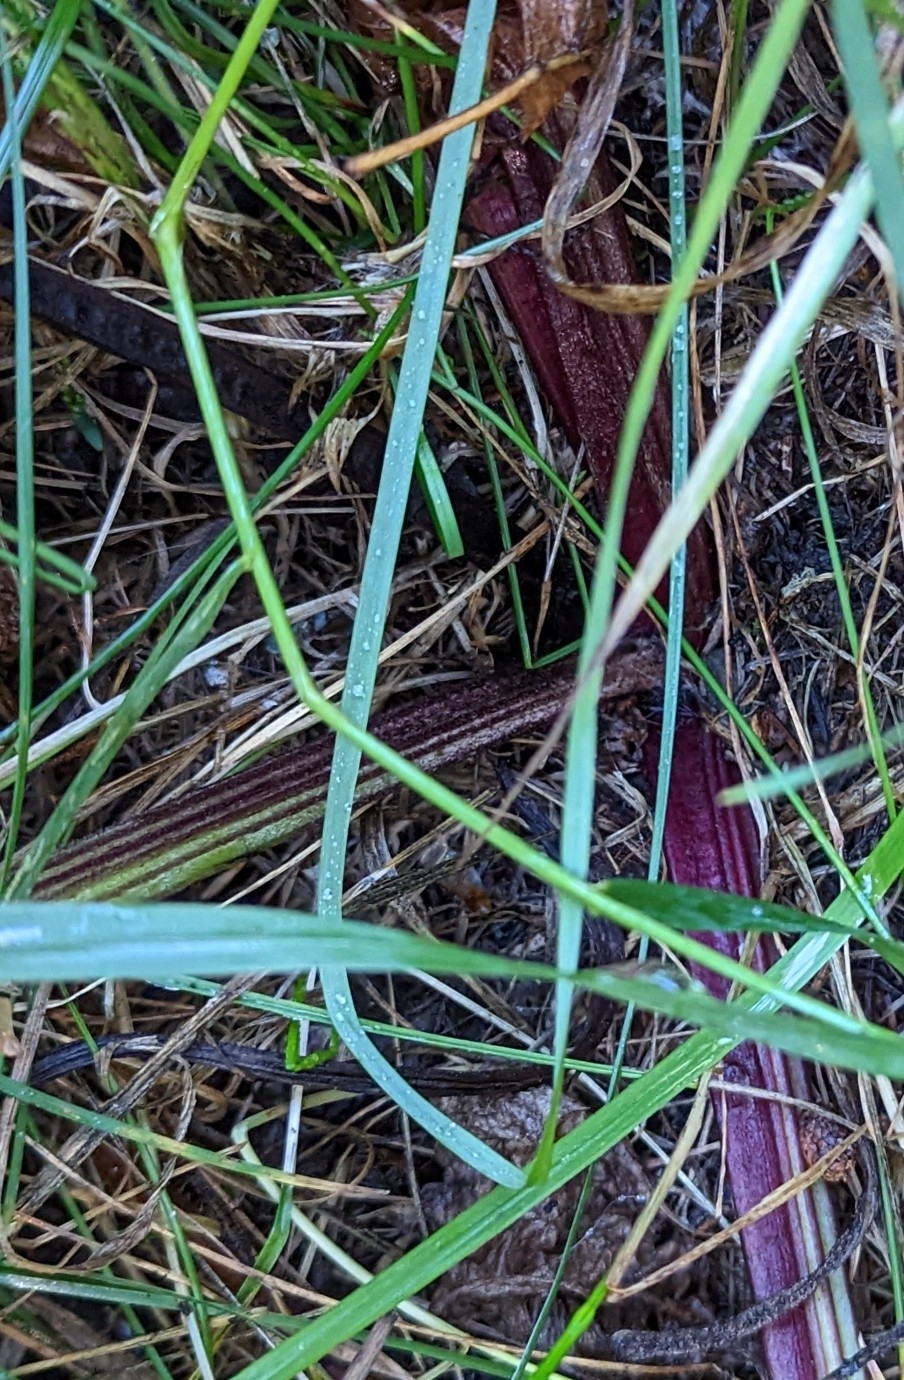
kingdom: Plantae
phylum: Tracheophyta
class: Magnoliopsida
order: Asterales
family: Asteraceae
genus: Arctium
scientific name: Arctium
